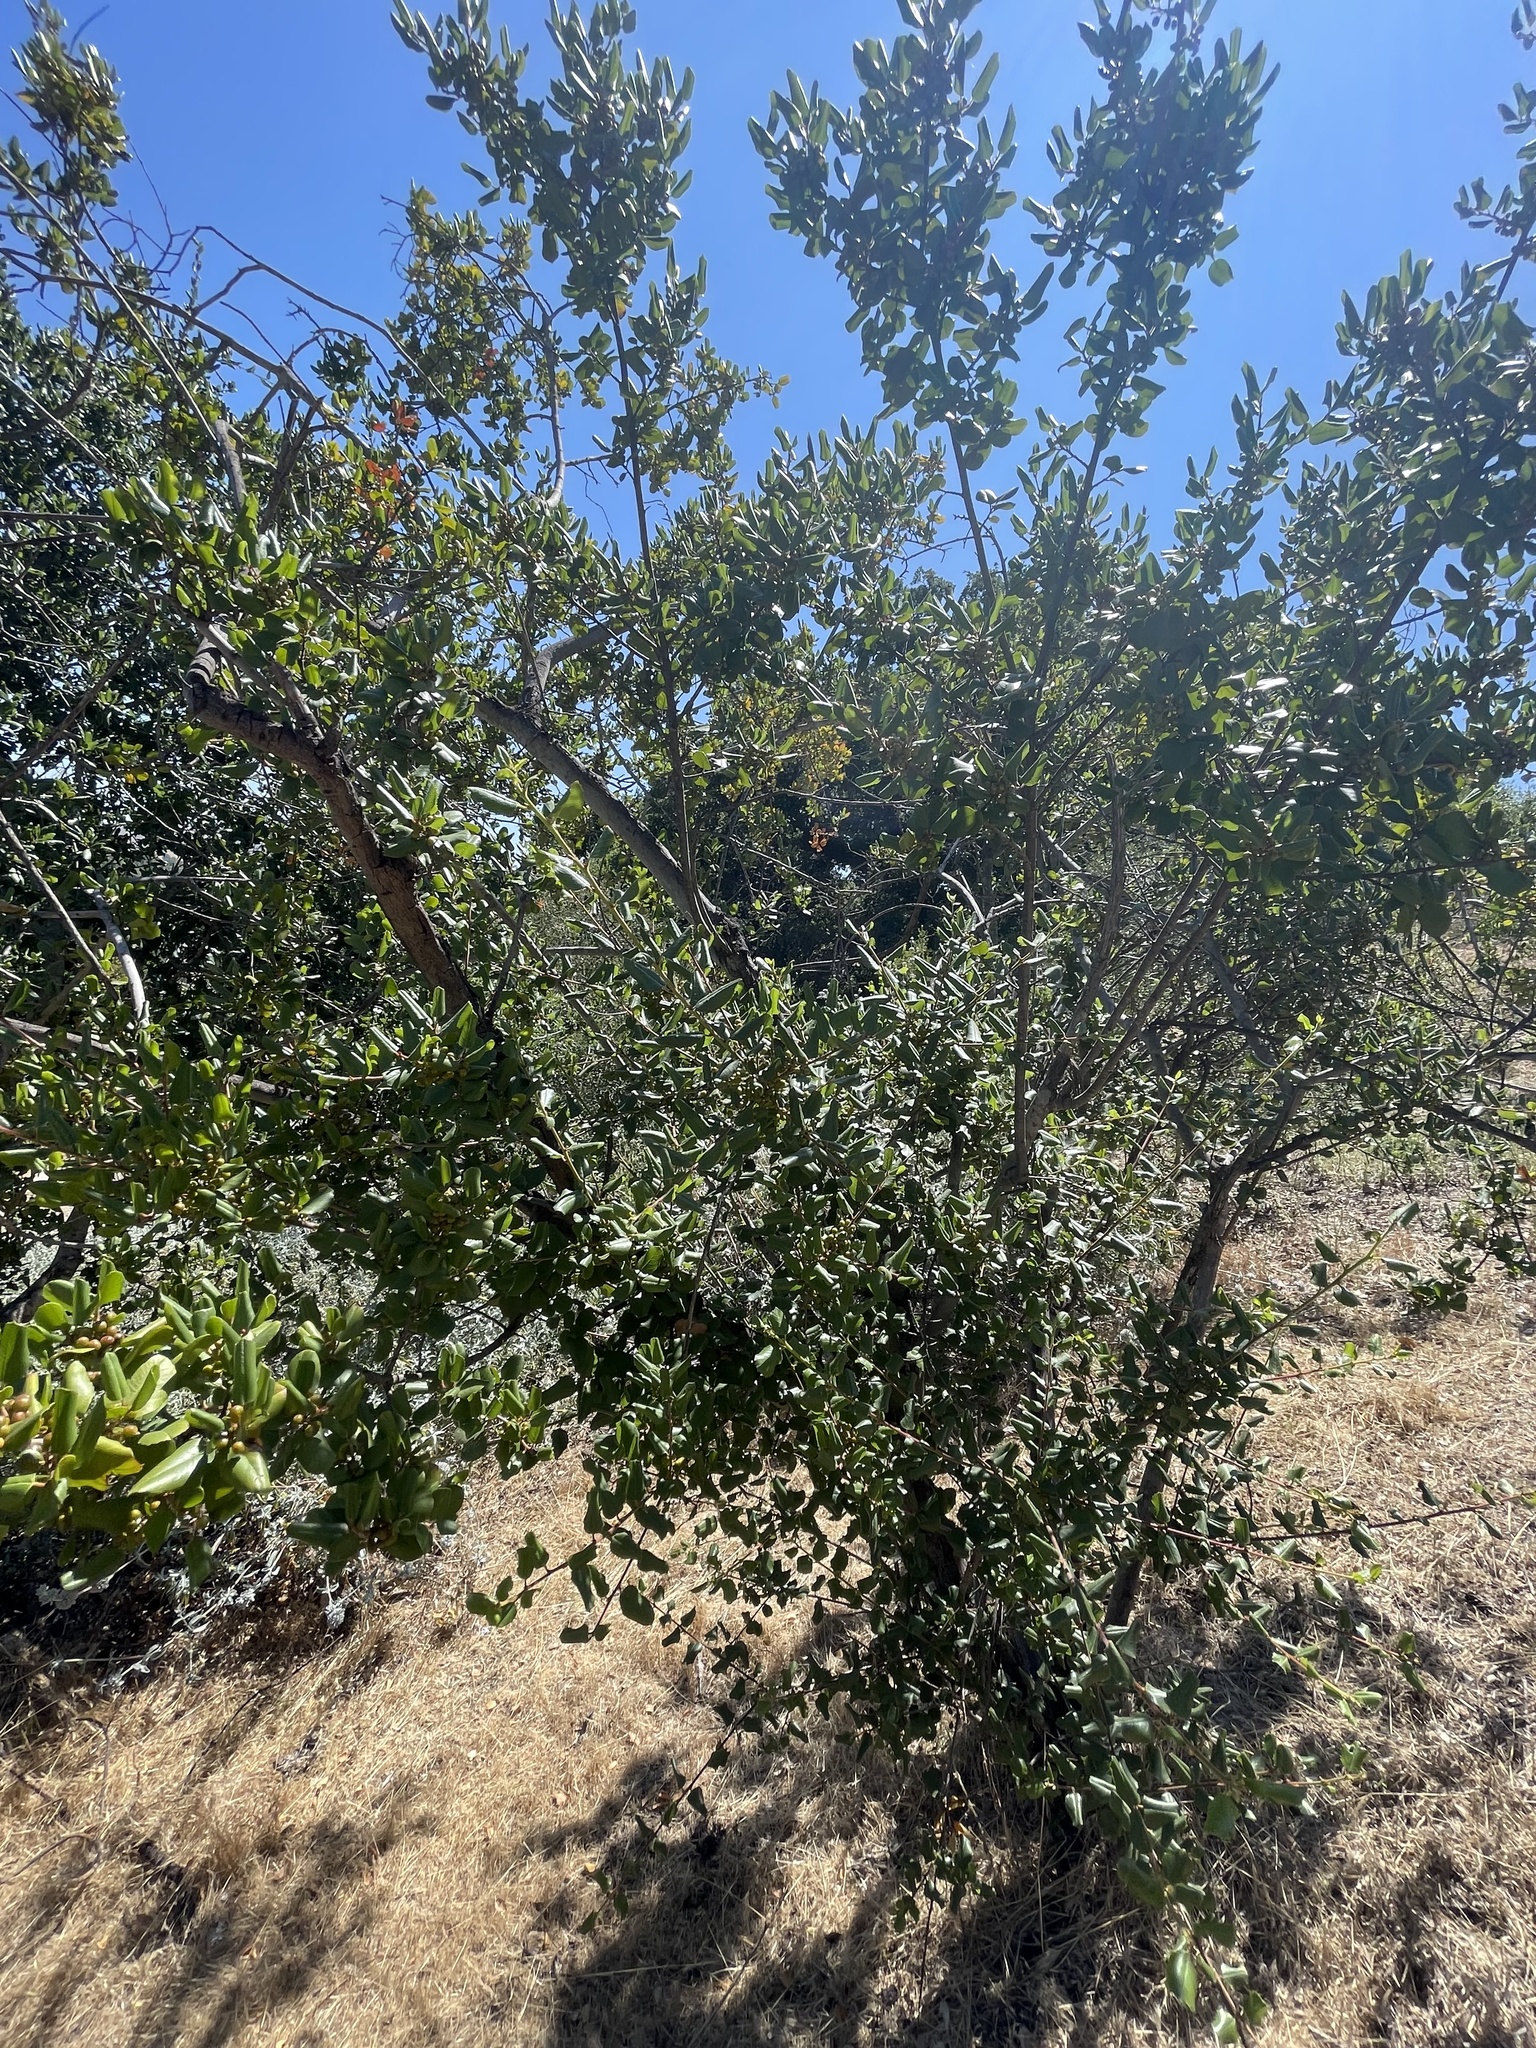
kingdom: Plantae
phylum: Tracheophyta
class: Magnoliopsida
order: Rosales
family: Rhamnaceae
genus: Endotropis
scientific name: Endotropis crocea
